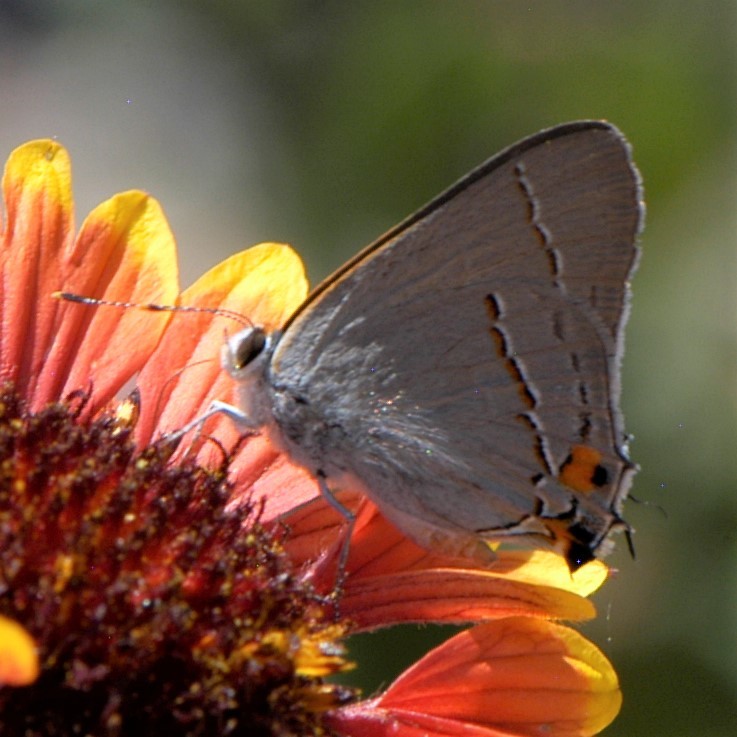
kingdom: Animalia
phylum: Arthropoda
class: Insecta
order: Lepidoptera
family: Lycaenidae
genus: Strymon
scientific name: Strymon melinus
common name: Gray hairstreak
